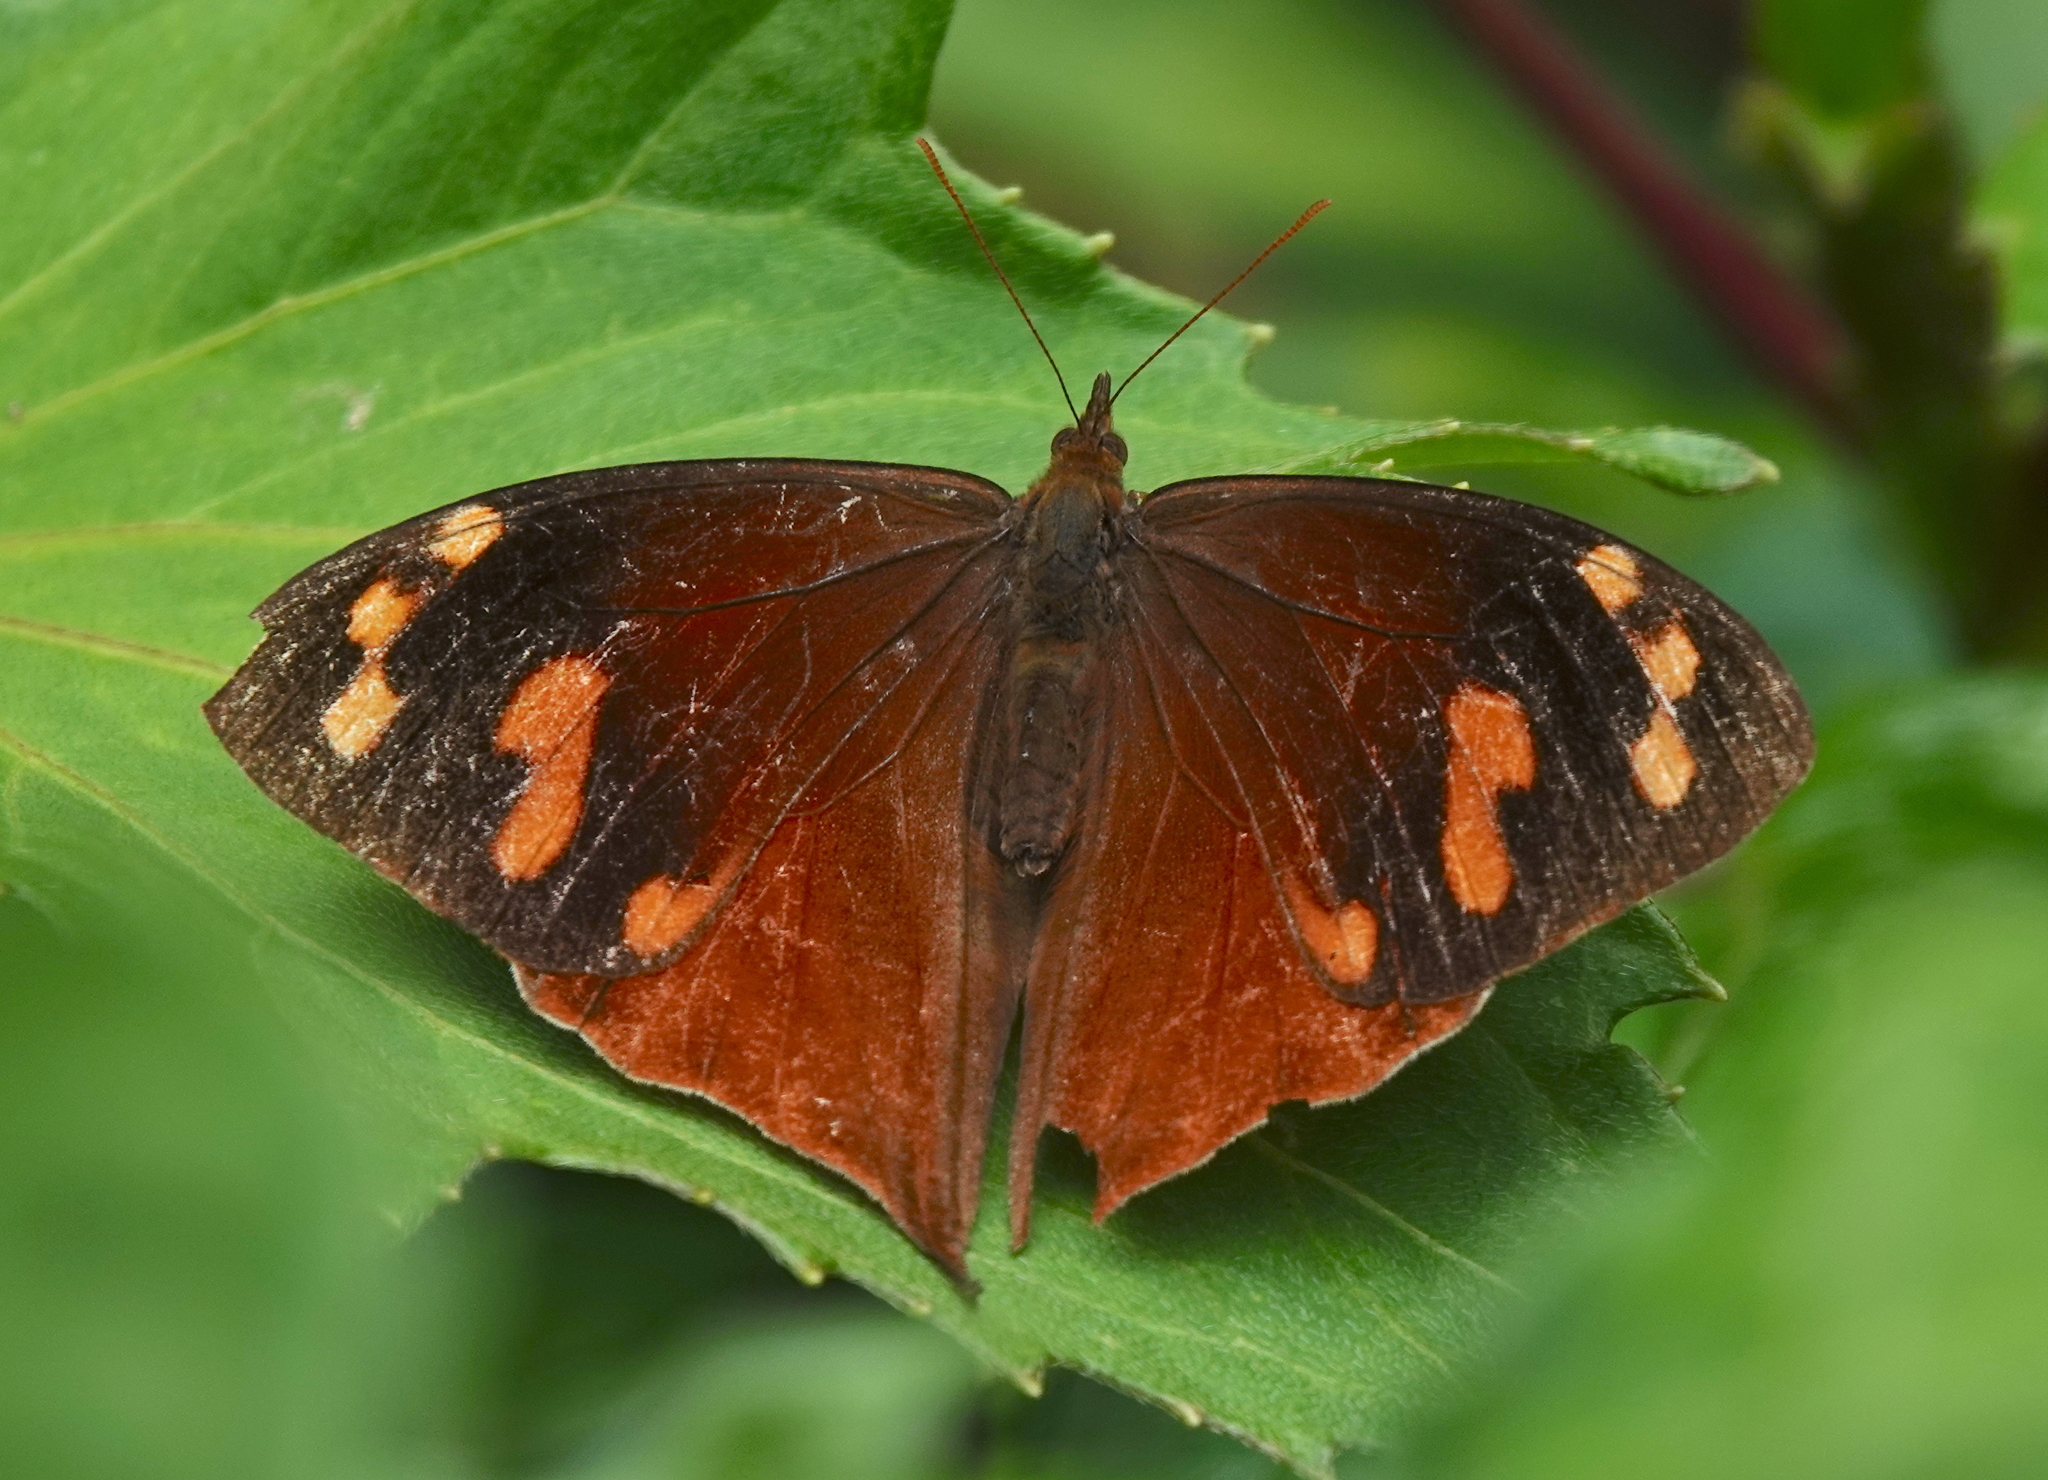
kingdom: Animalia
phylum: Arthropoda
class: Insecta
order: Lepidoptera
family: Nymphalidae
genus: Corades
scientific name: Corades enyo
